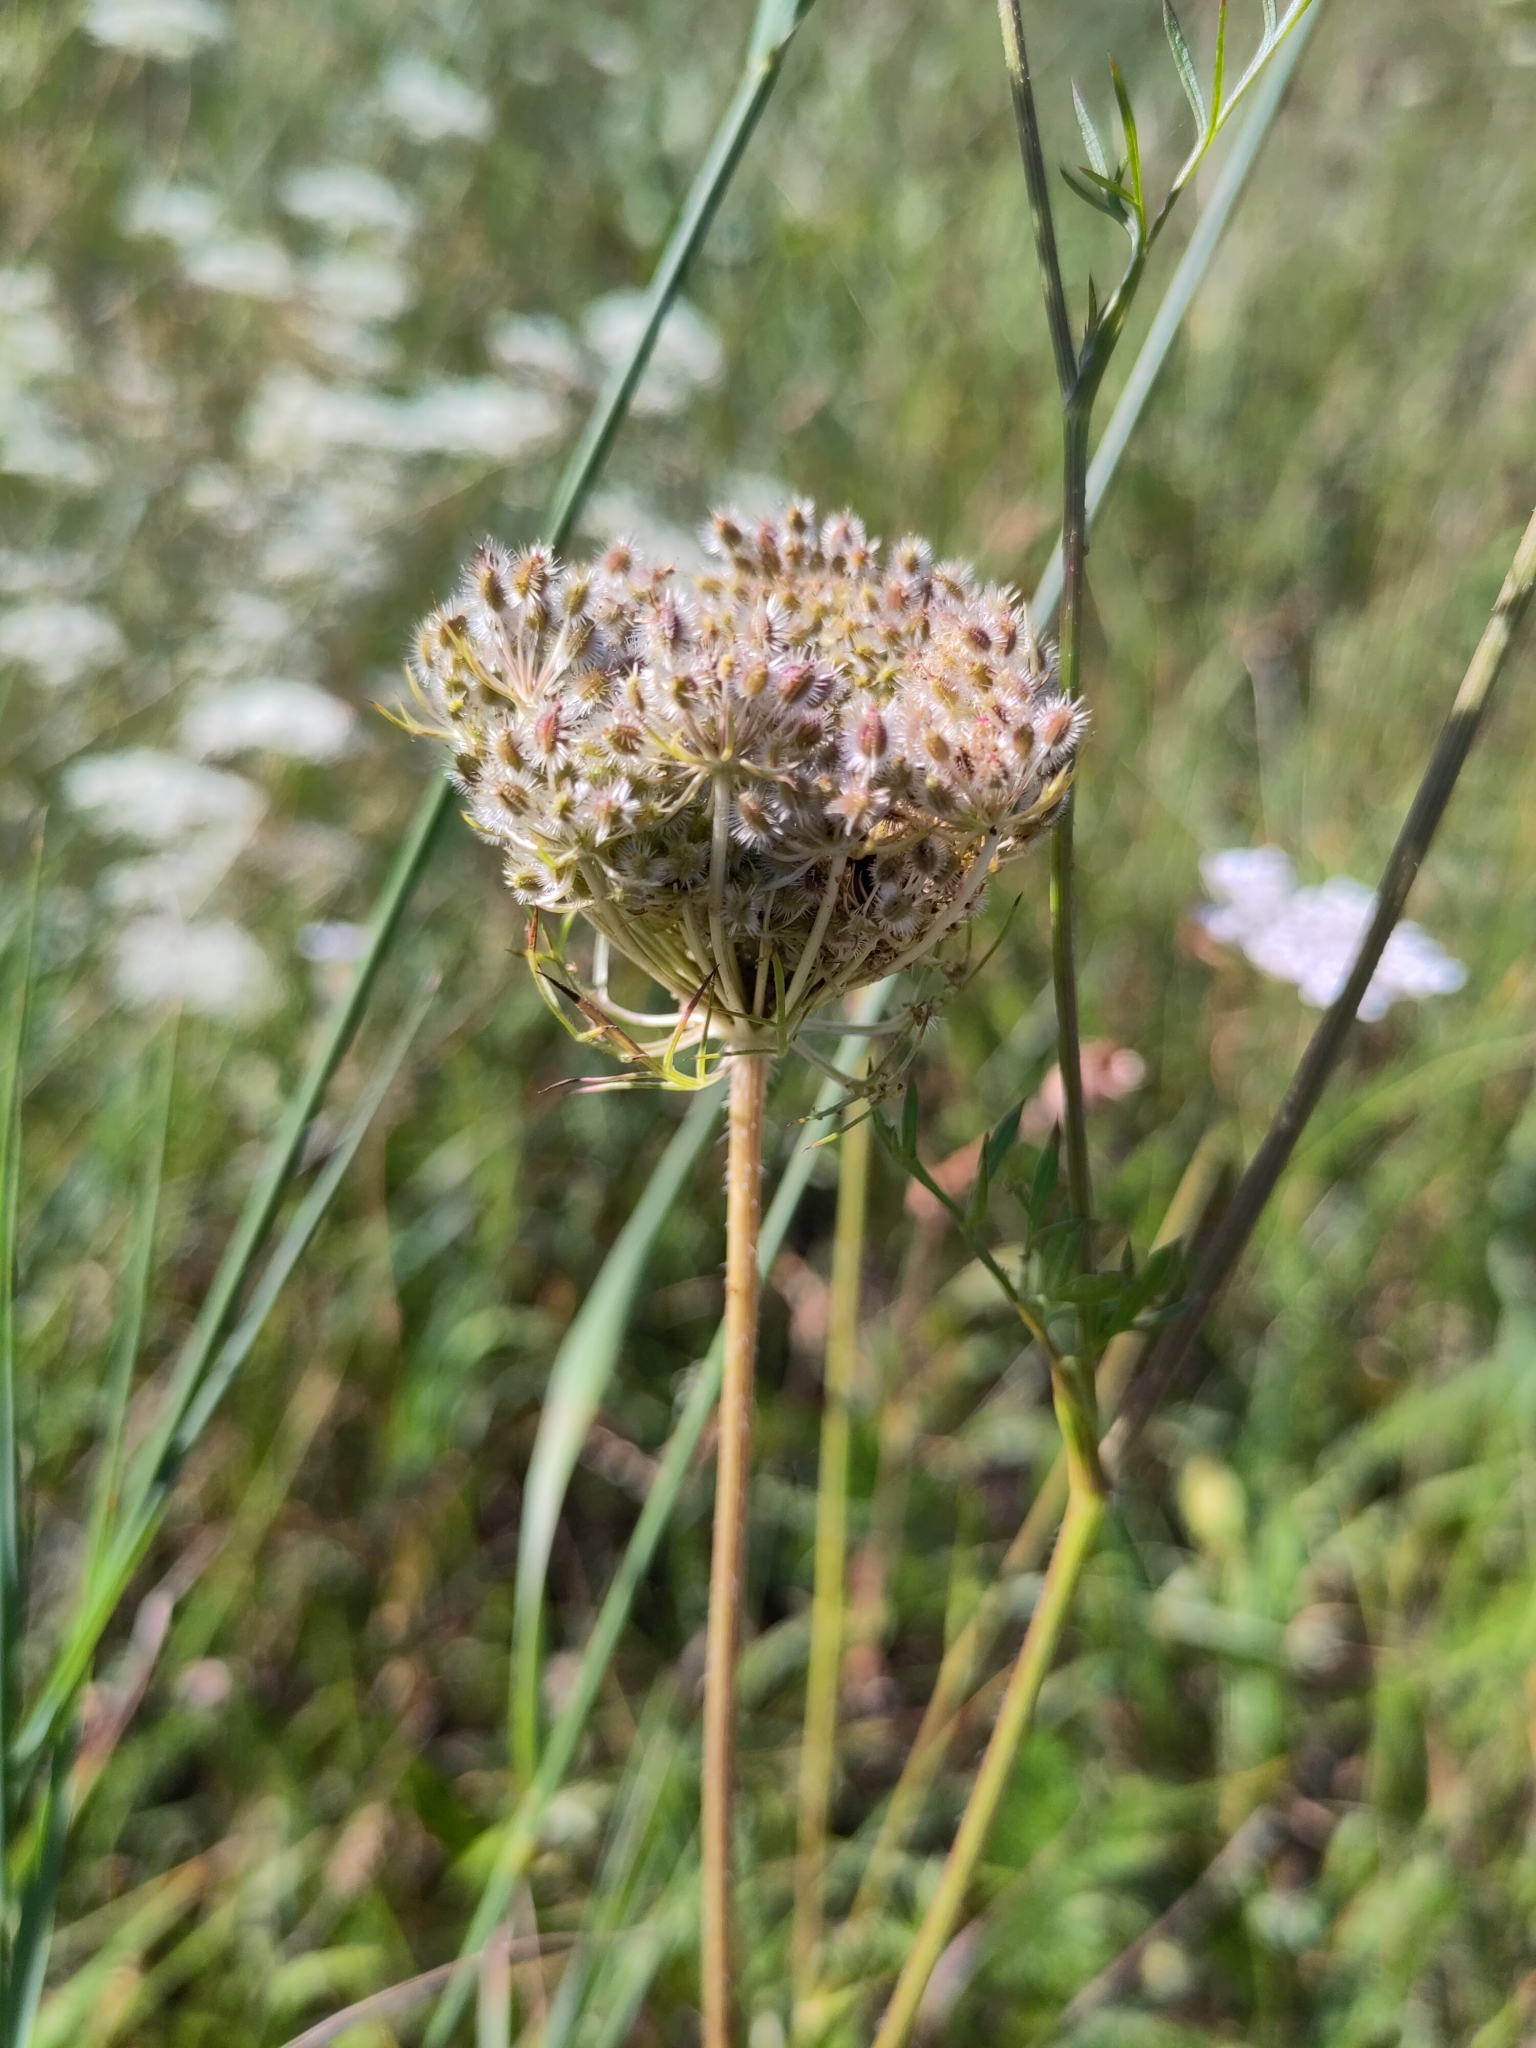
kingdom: Plantae
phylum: Tracheophyta
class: Magnoliopsida
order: Apiales
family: Apiaceae
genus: Daucus
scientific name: Daucus carota
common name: Wild carrot
